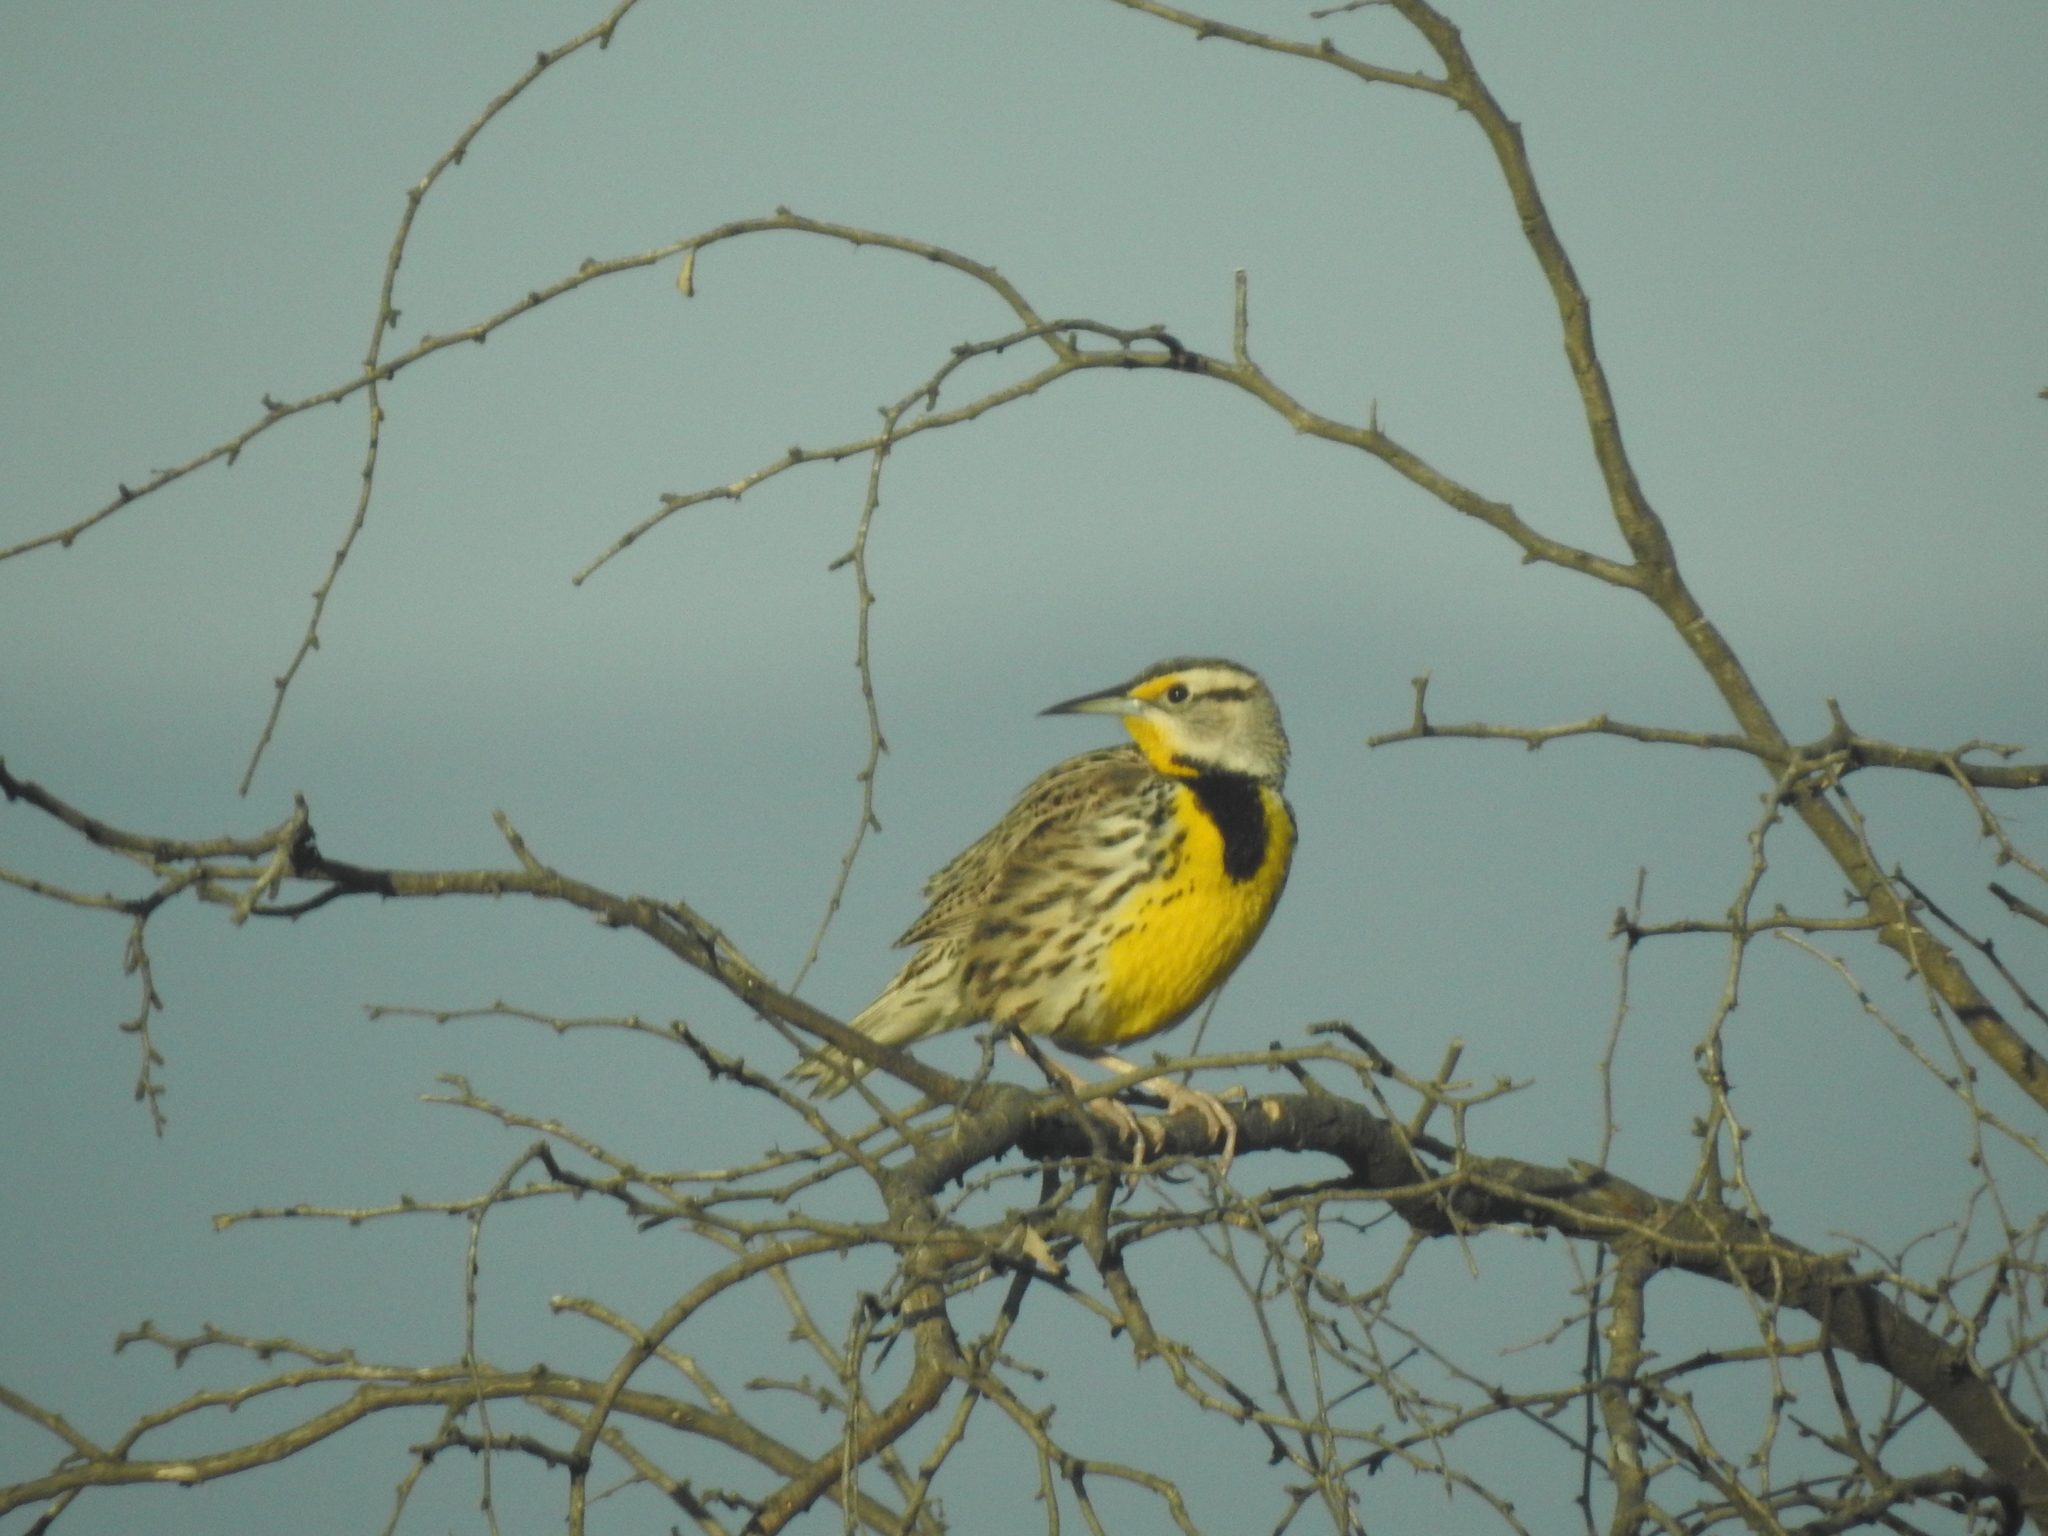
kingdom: Animalia
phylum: Chordata
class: Aves
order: Passeriformes
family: Icteridae
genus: Sturnella
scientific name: Sturnella magna
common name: Eastern meadowlark
